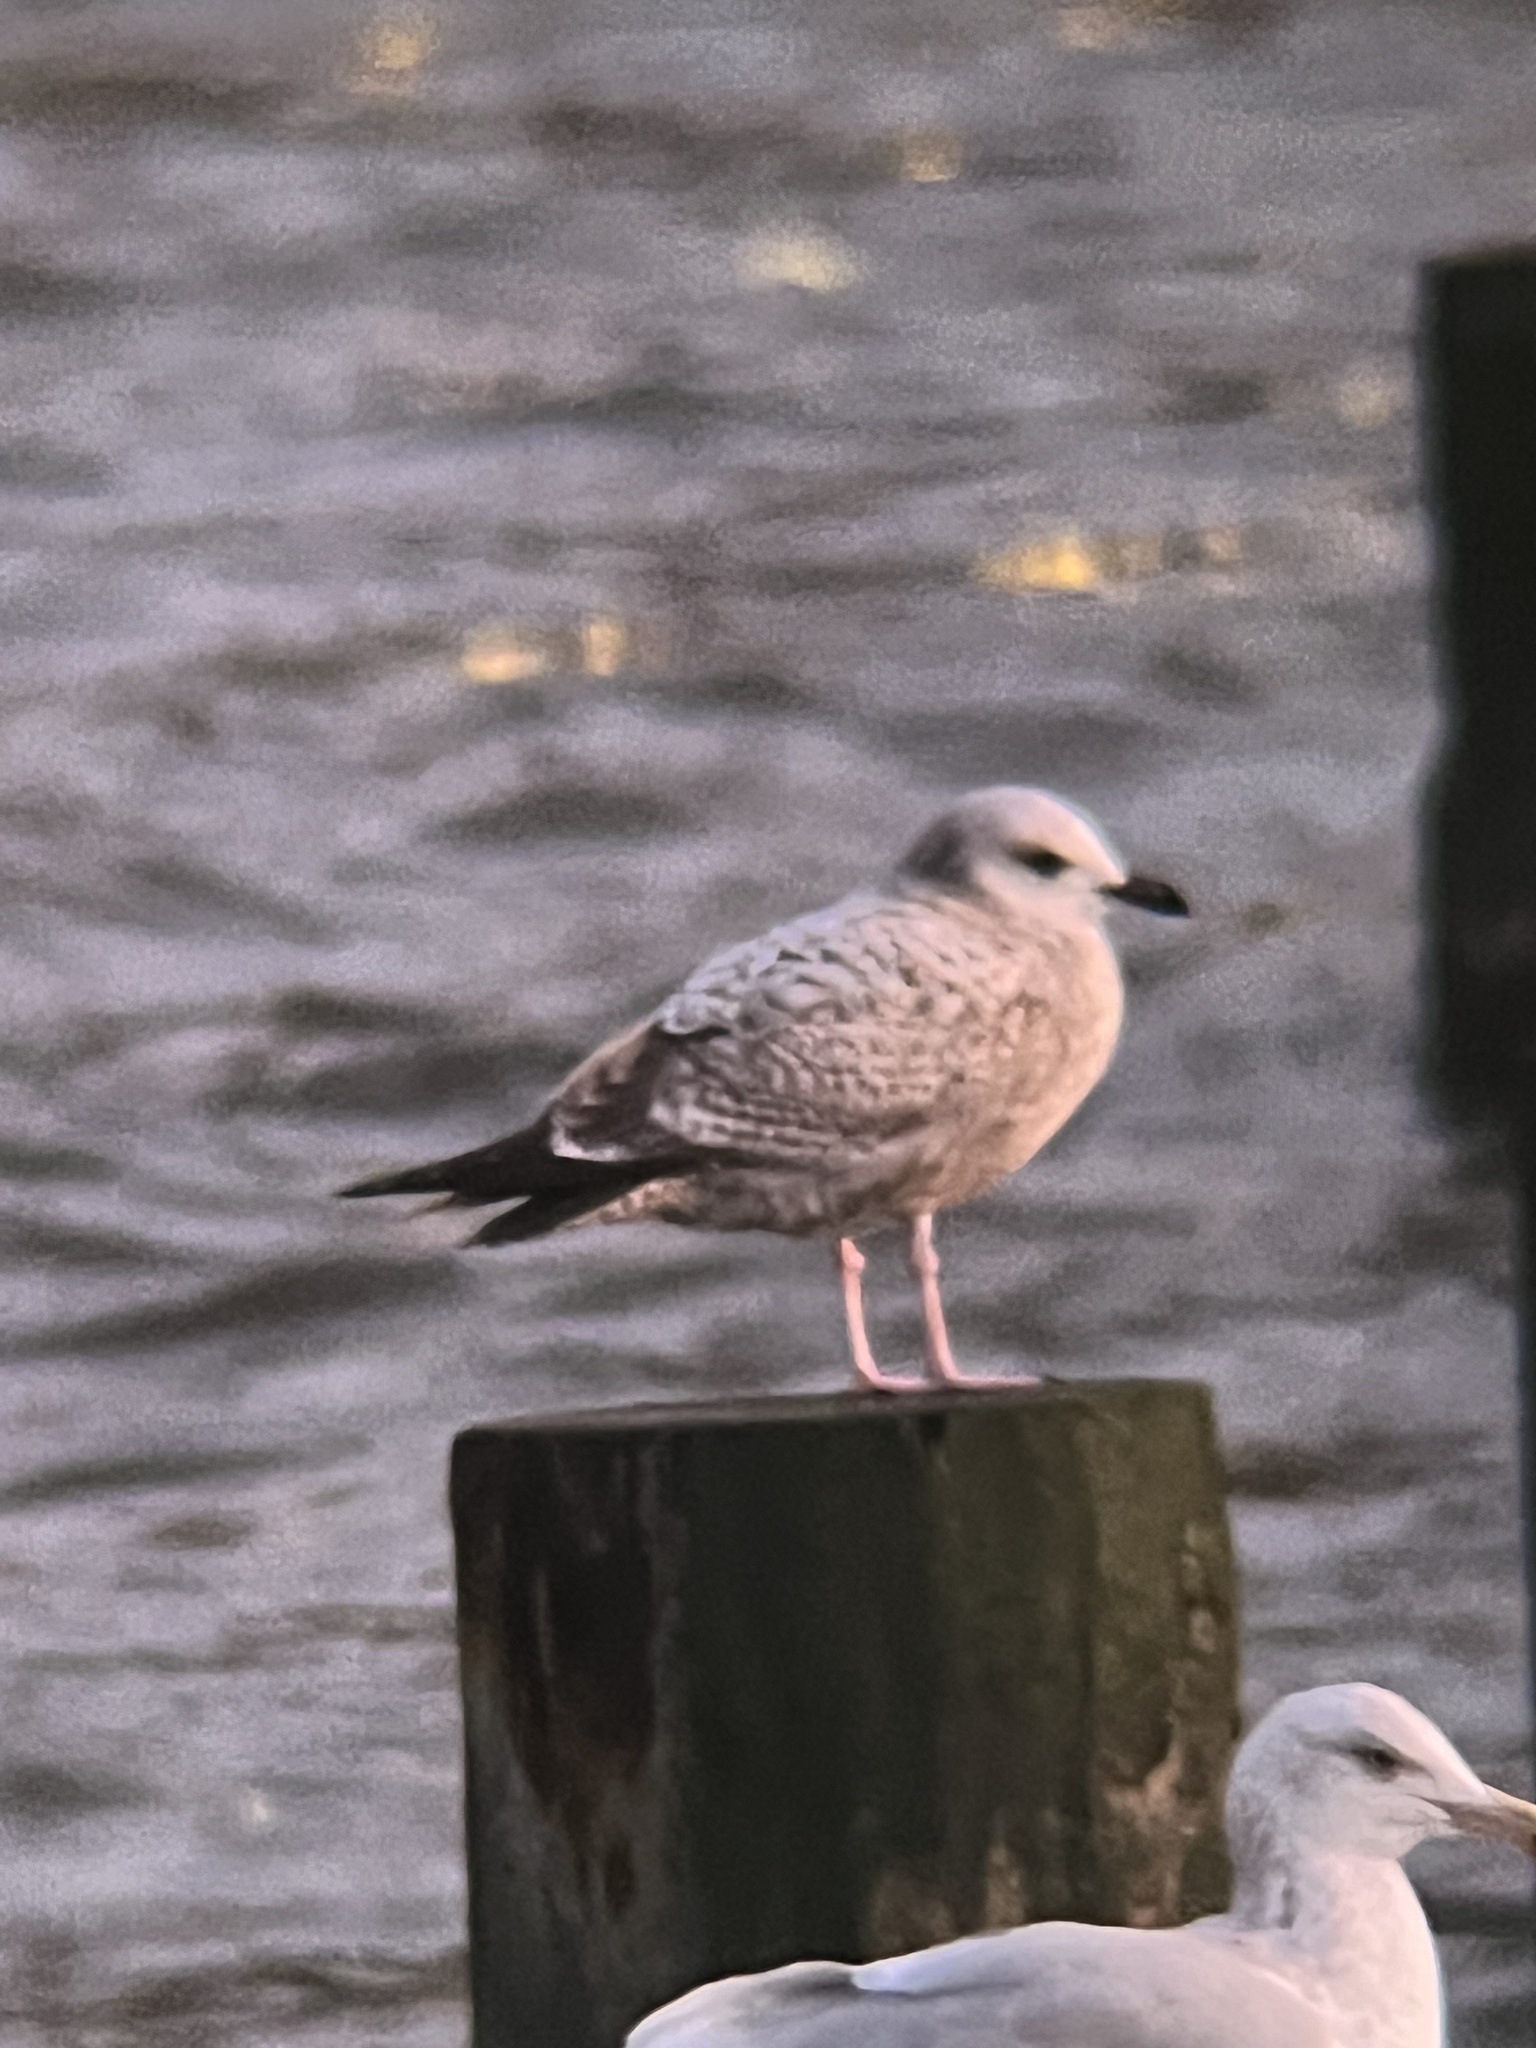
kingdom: Animalia
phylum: Chordata
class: Aves
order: Charadriiformes
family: Laridae
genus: Larus
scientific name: Larus argentatus
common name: Herring gull
